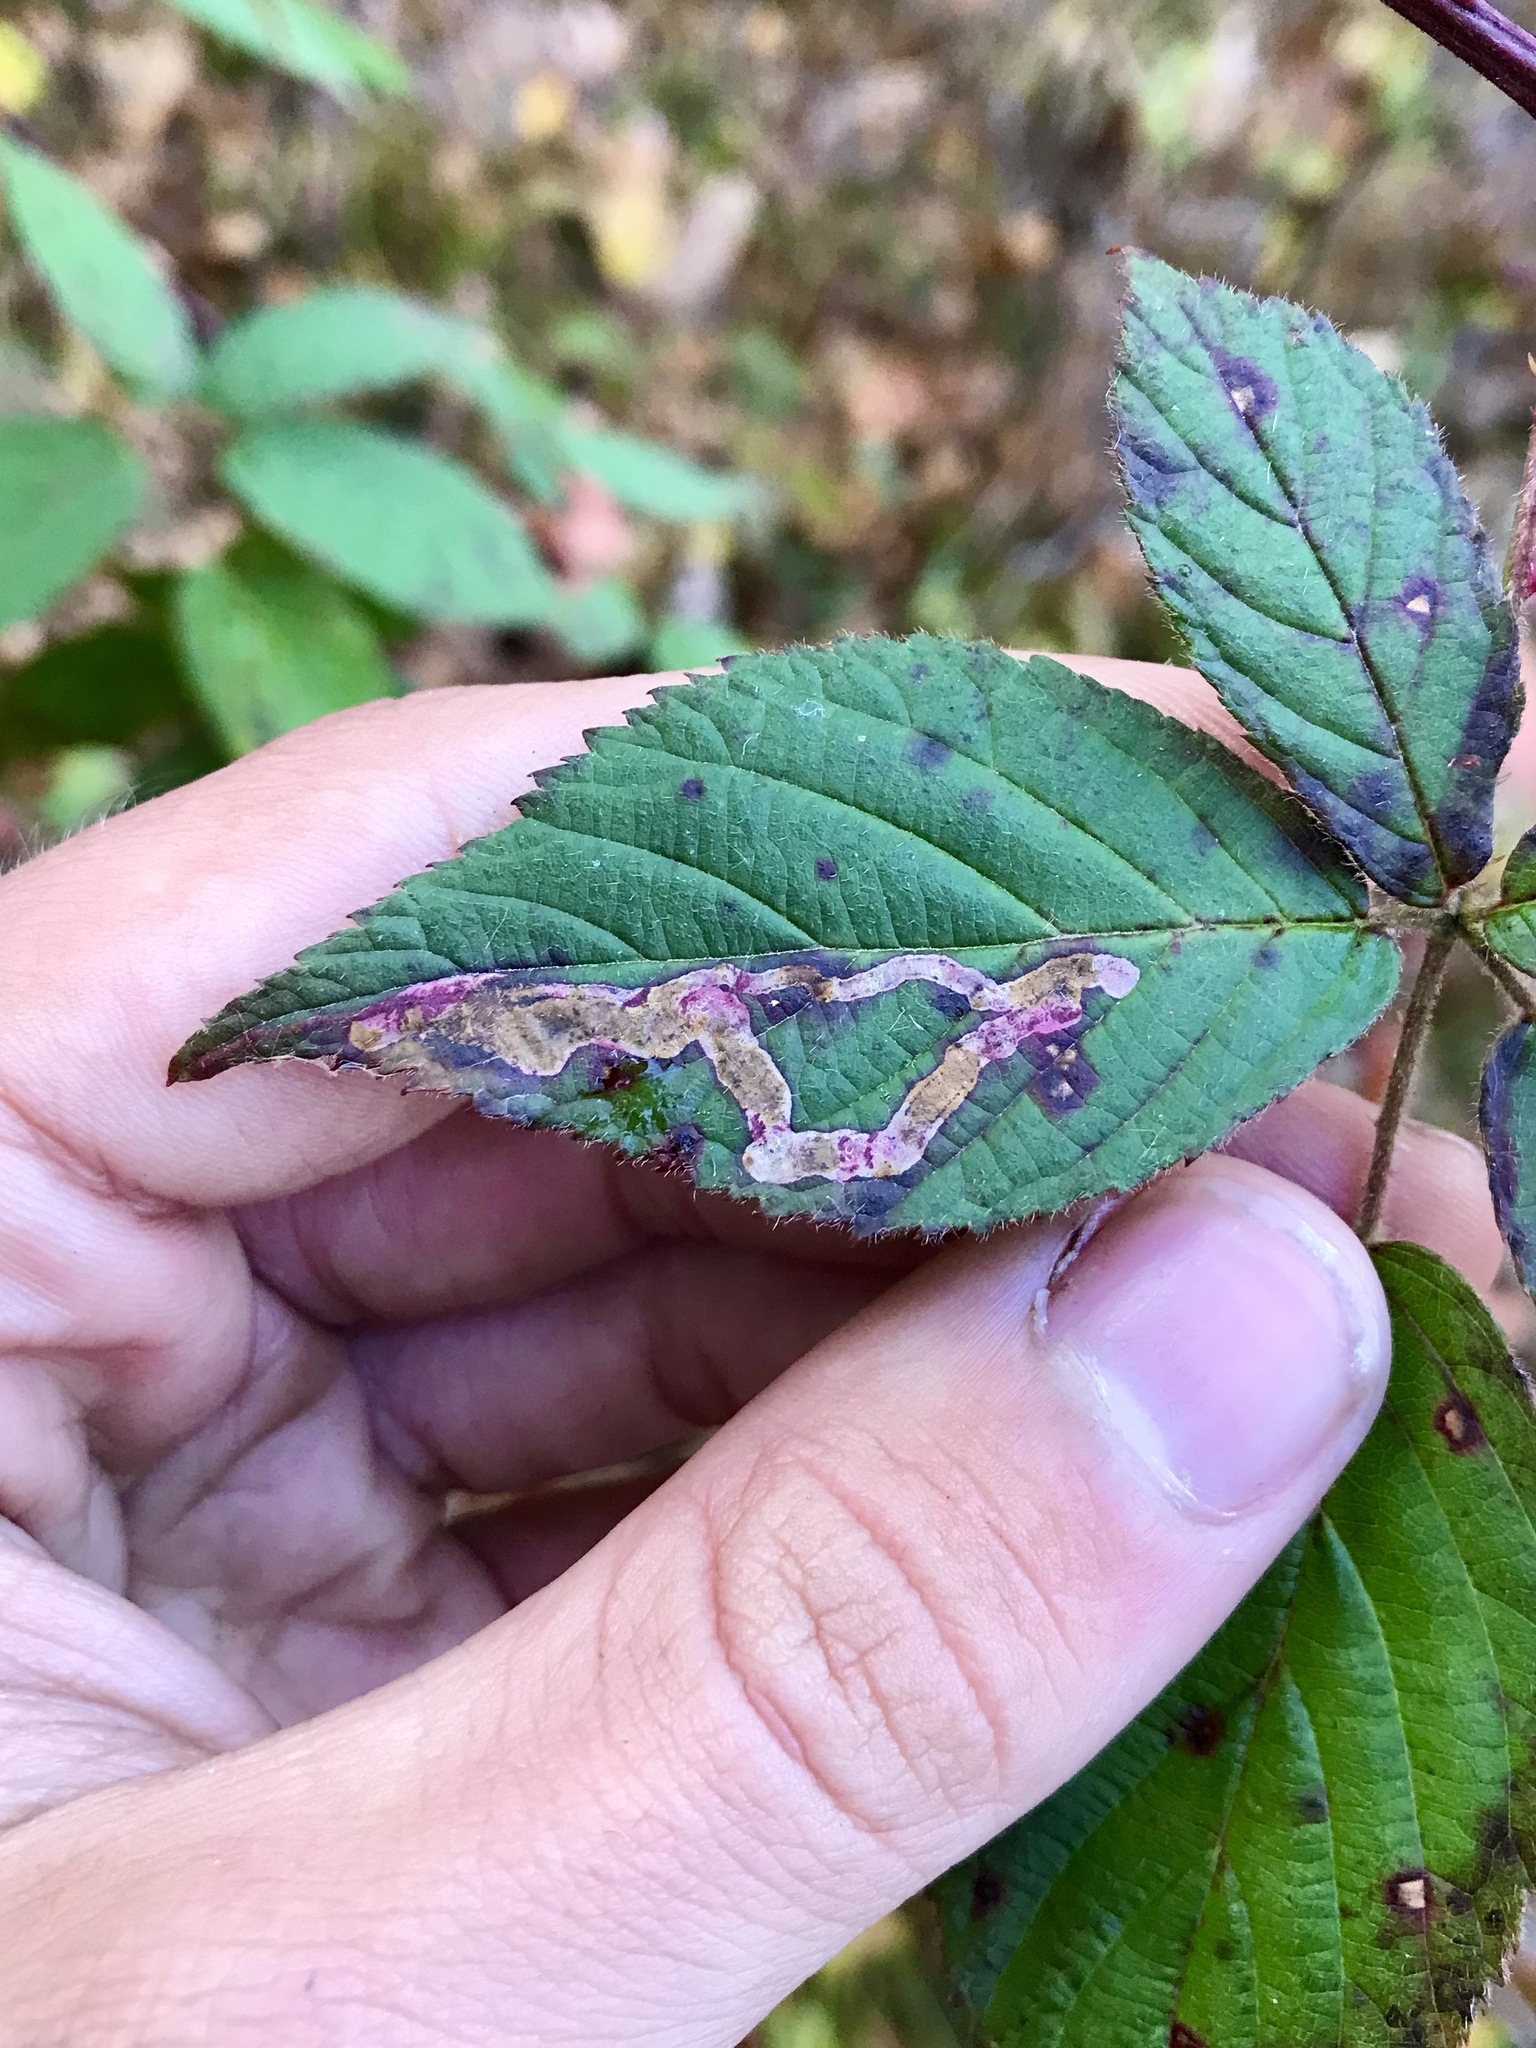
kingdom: Animalia
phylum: Arthropoda
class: Insecta
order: Diptera
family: Agromyzidae
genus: Agromyza
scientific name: Agromyza vockerothi
